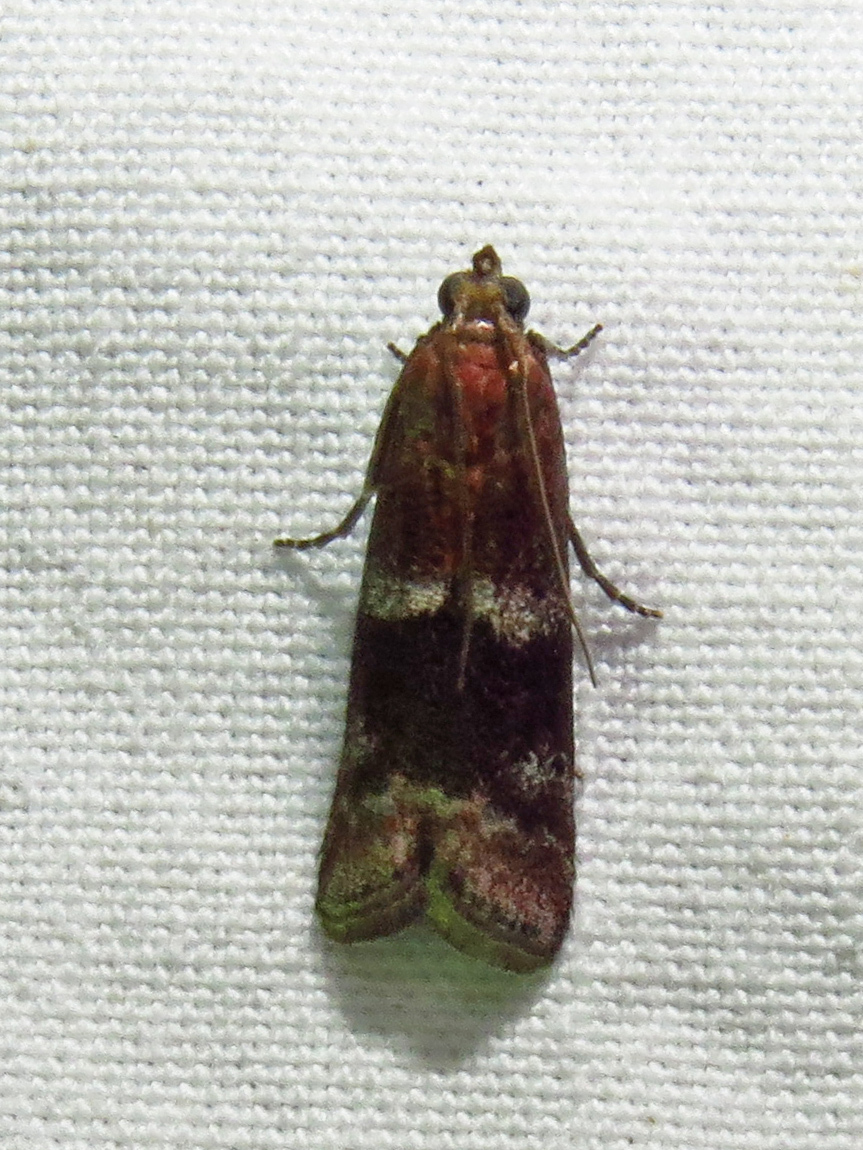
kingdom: Animalia
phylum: Arthropoda
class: Insecta
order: Lepidoptera
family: Pyralidae
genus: Moodna
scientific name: Moodna ostrinella
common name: Darker moodna moth
